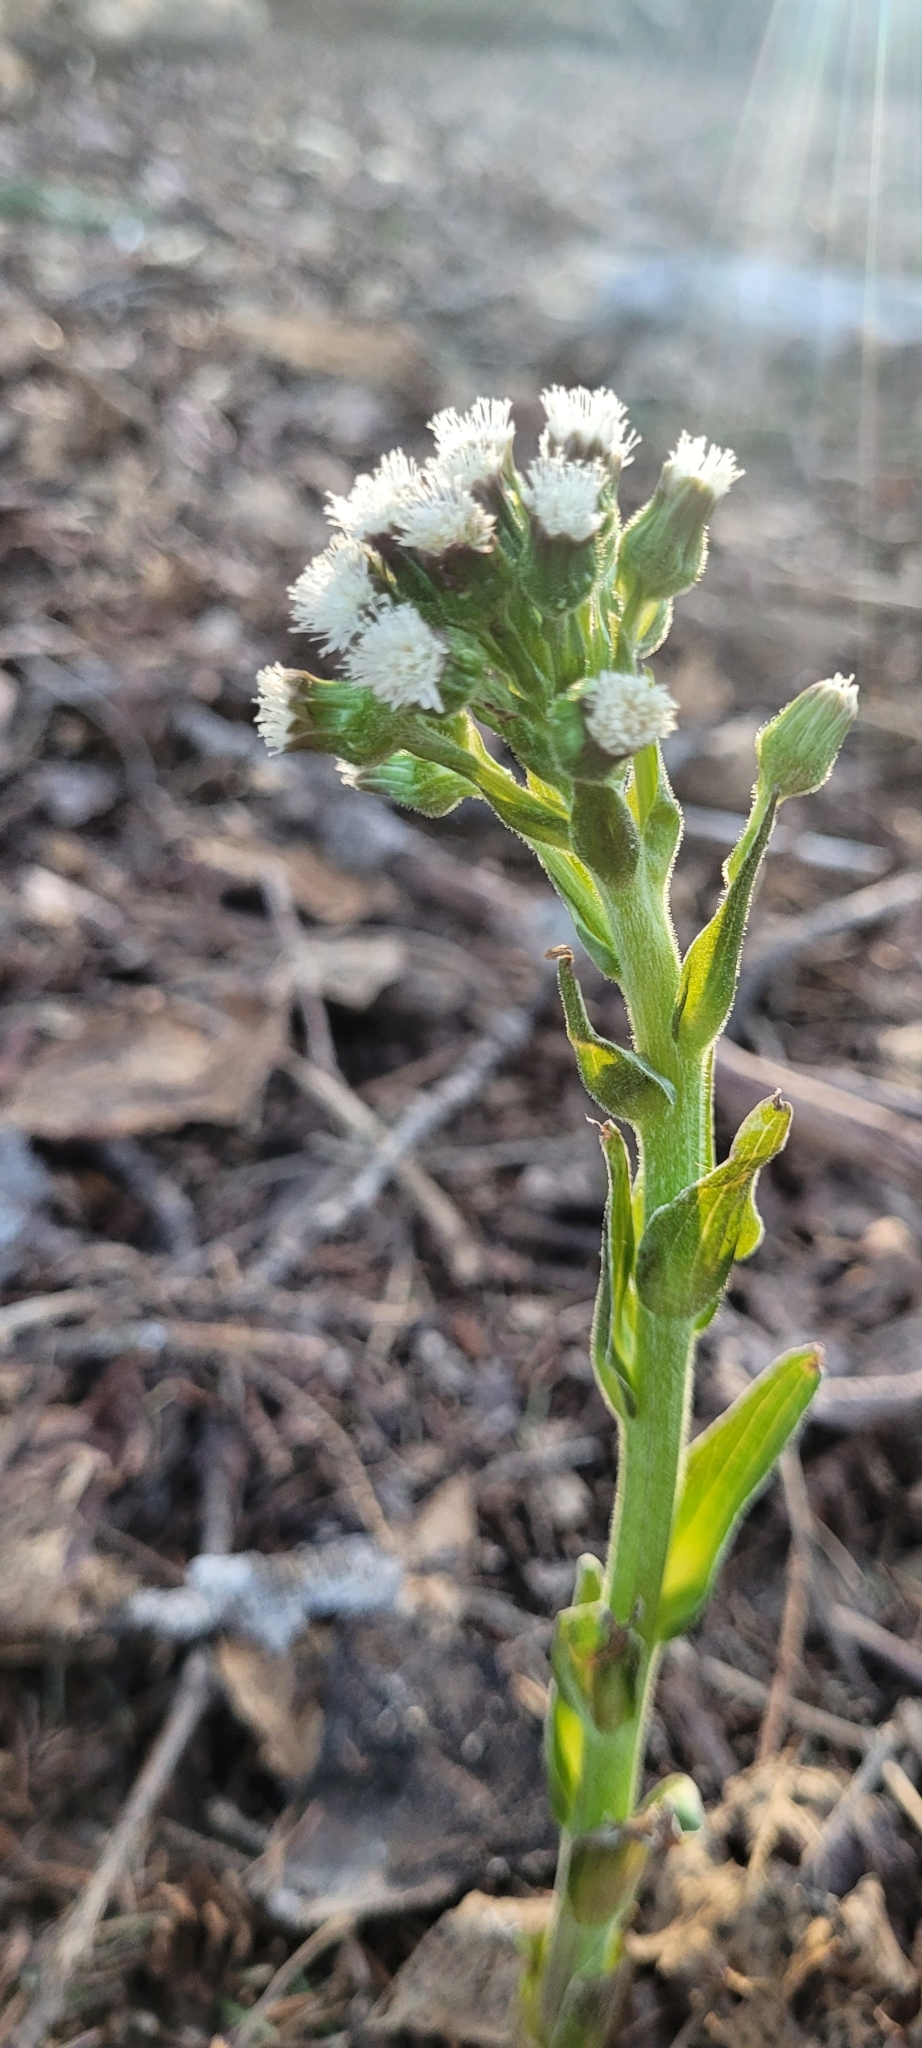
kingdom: Plantae
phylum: Tracheophyta
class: Magnoliopsida
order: Asterales
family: Asteraceae
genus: Petasites
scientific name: Petasites frigidus
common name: Arctic butterbur
